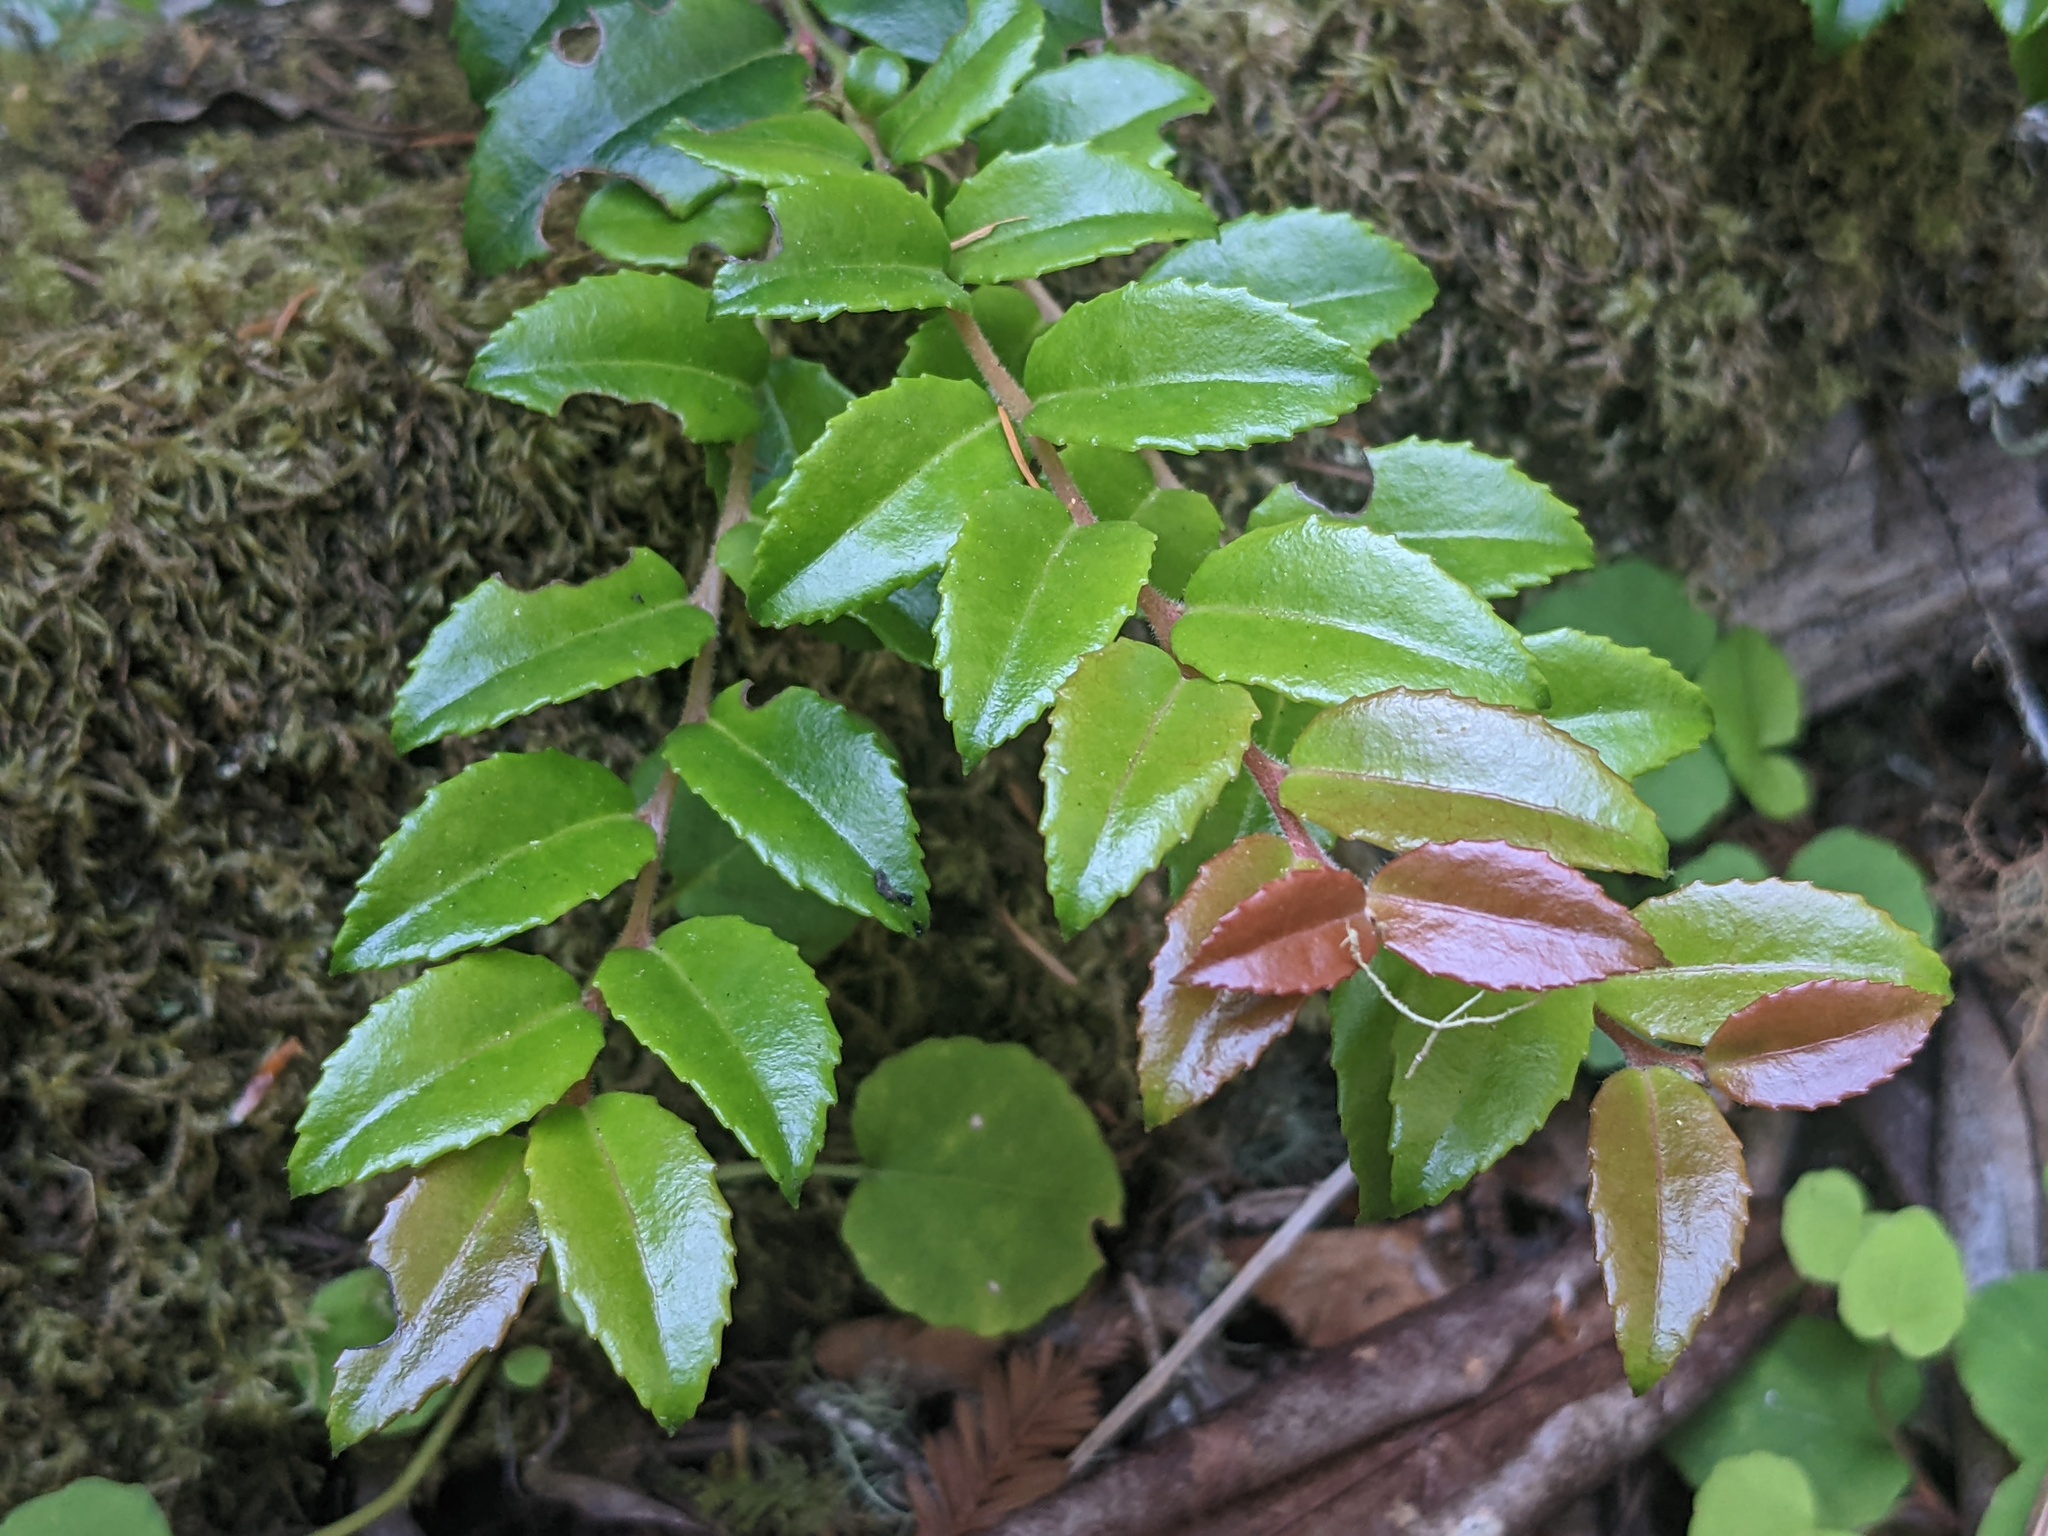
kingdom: Plantae
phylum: Tracheophyta
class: Magnoliopsida
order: Ericales
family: Ericaceae
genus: Vaccinium
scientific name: Vaccinium ovatum
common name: California-huckleberry
